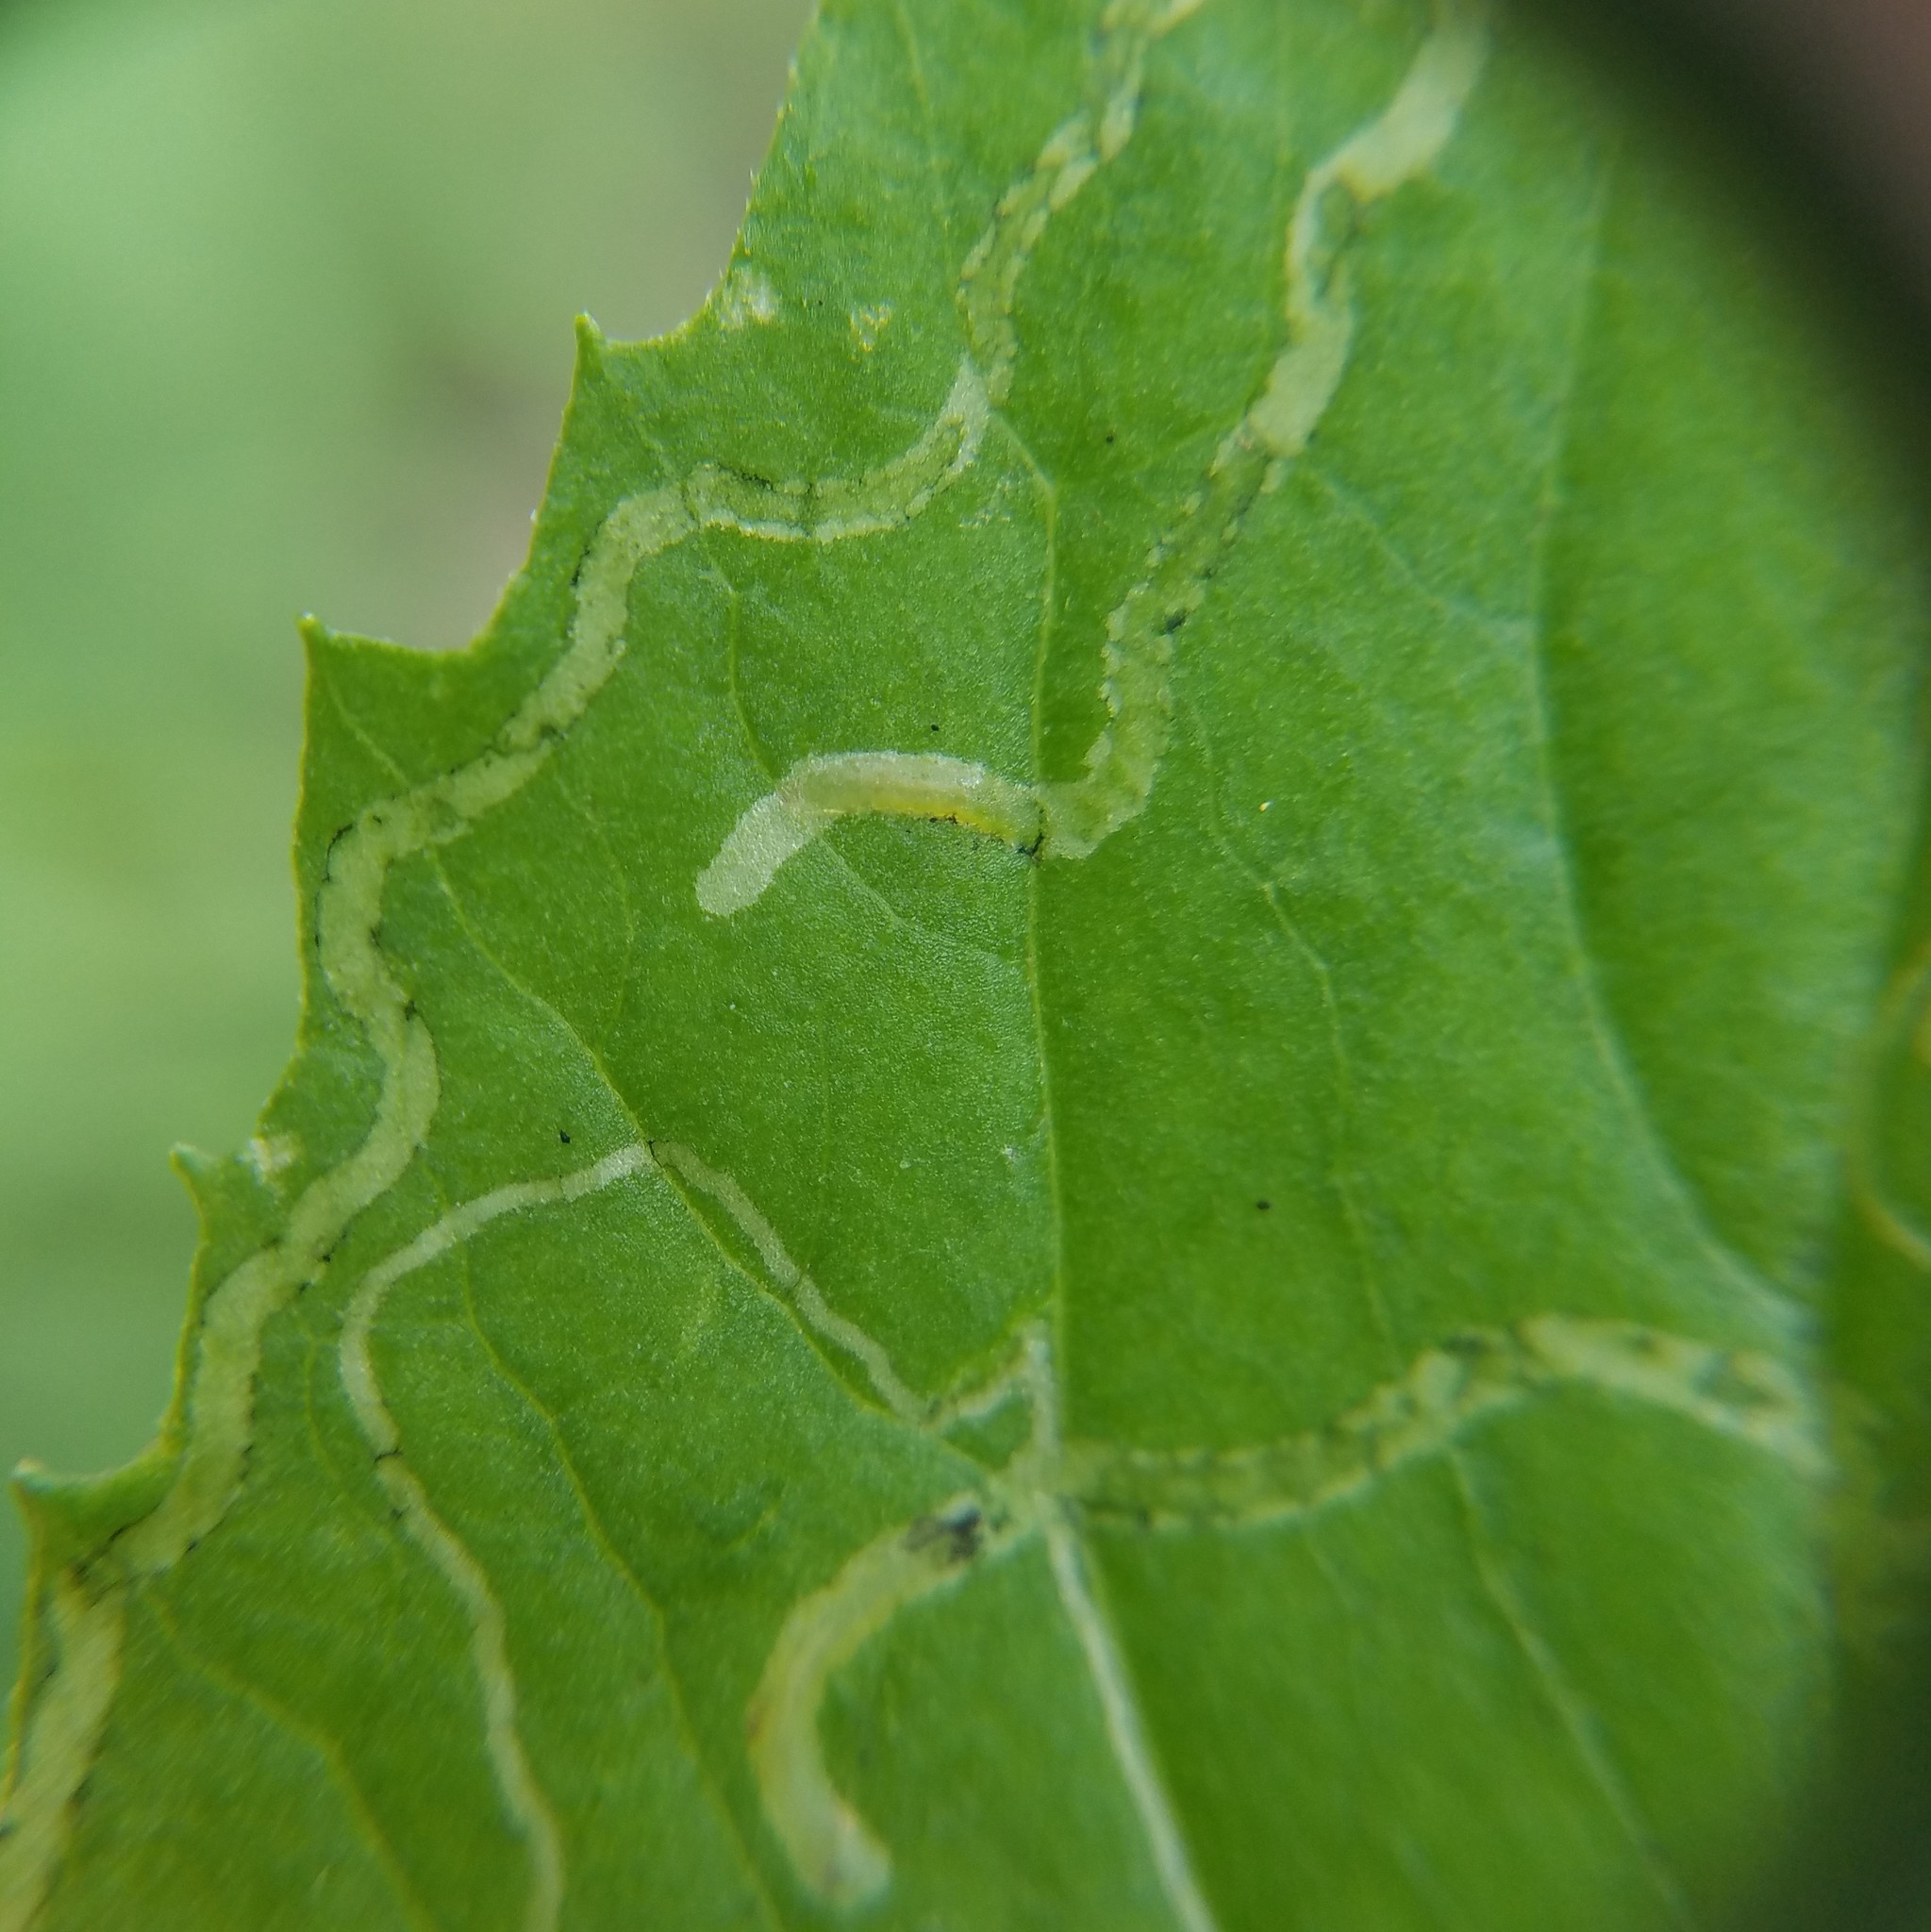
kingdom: Animalia
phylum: Arthropoda
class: Insecta
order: Lepidoptera
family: Gracillariidae
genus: Phyllocnistis
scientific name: Phyllocnistis insignis
